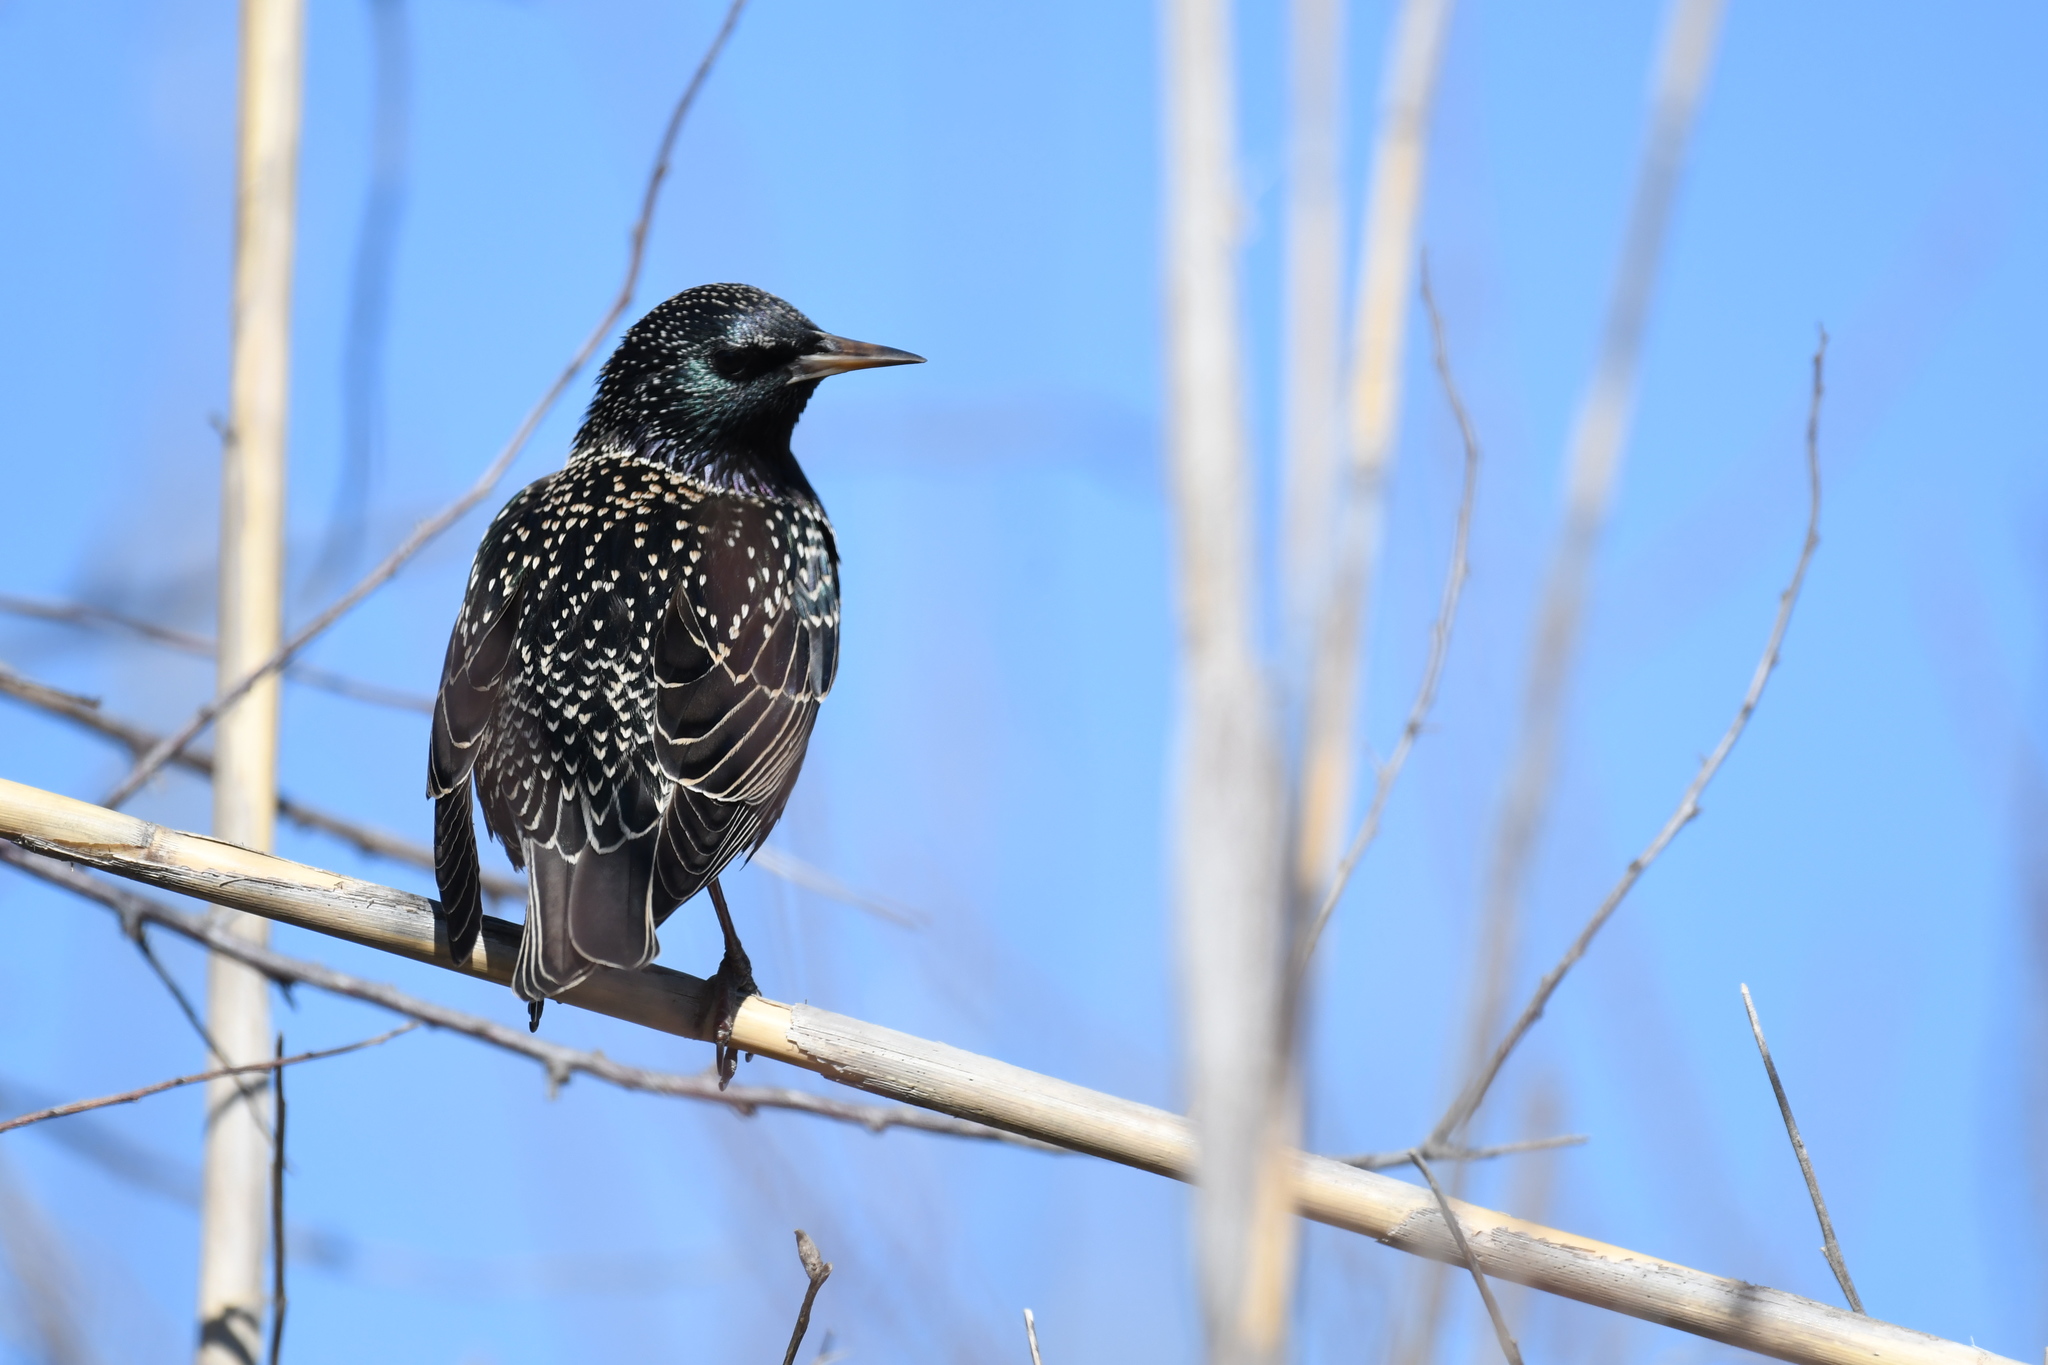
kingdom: Animalia
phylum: Chordata
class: Aves
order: Passeriformes
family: Sturnidae
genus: Sturnus
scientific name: Sturnus vulgaris
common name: Common starling
